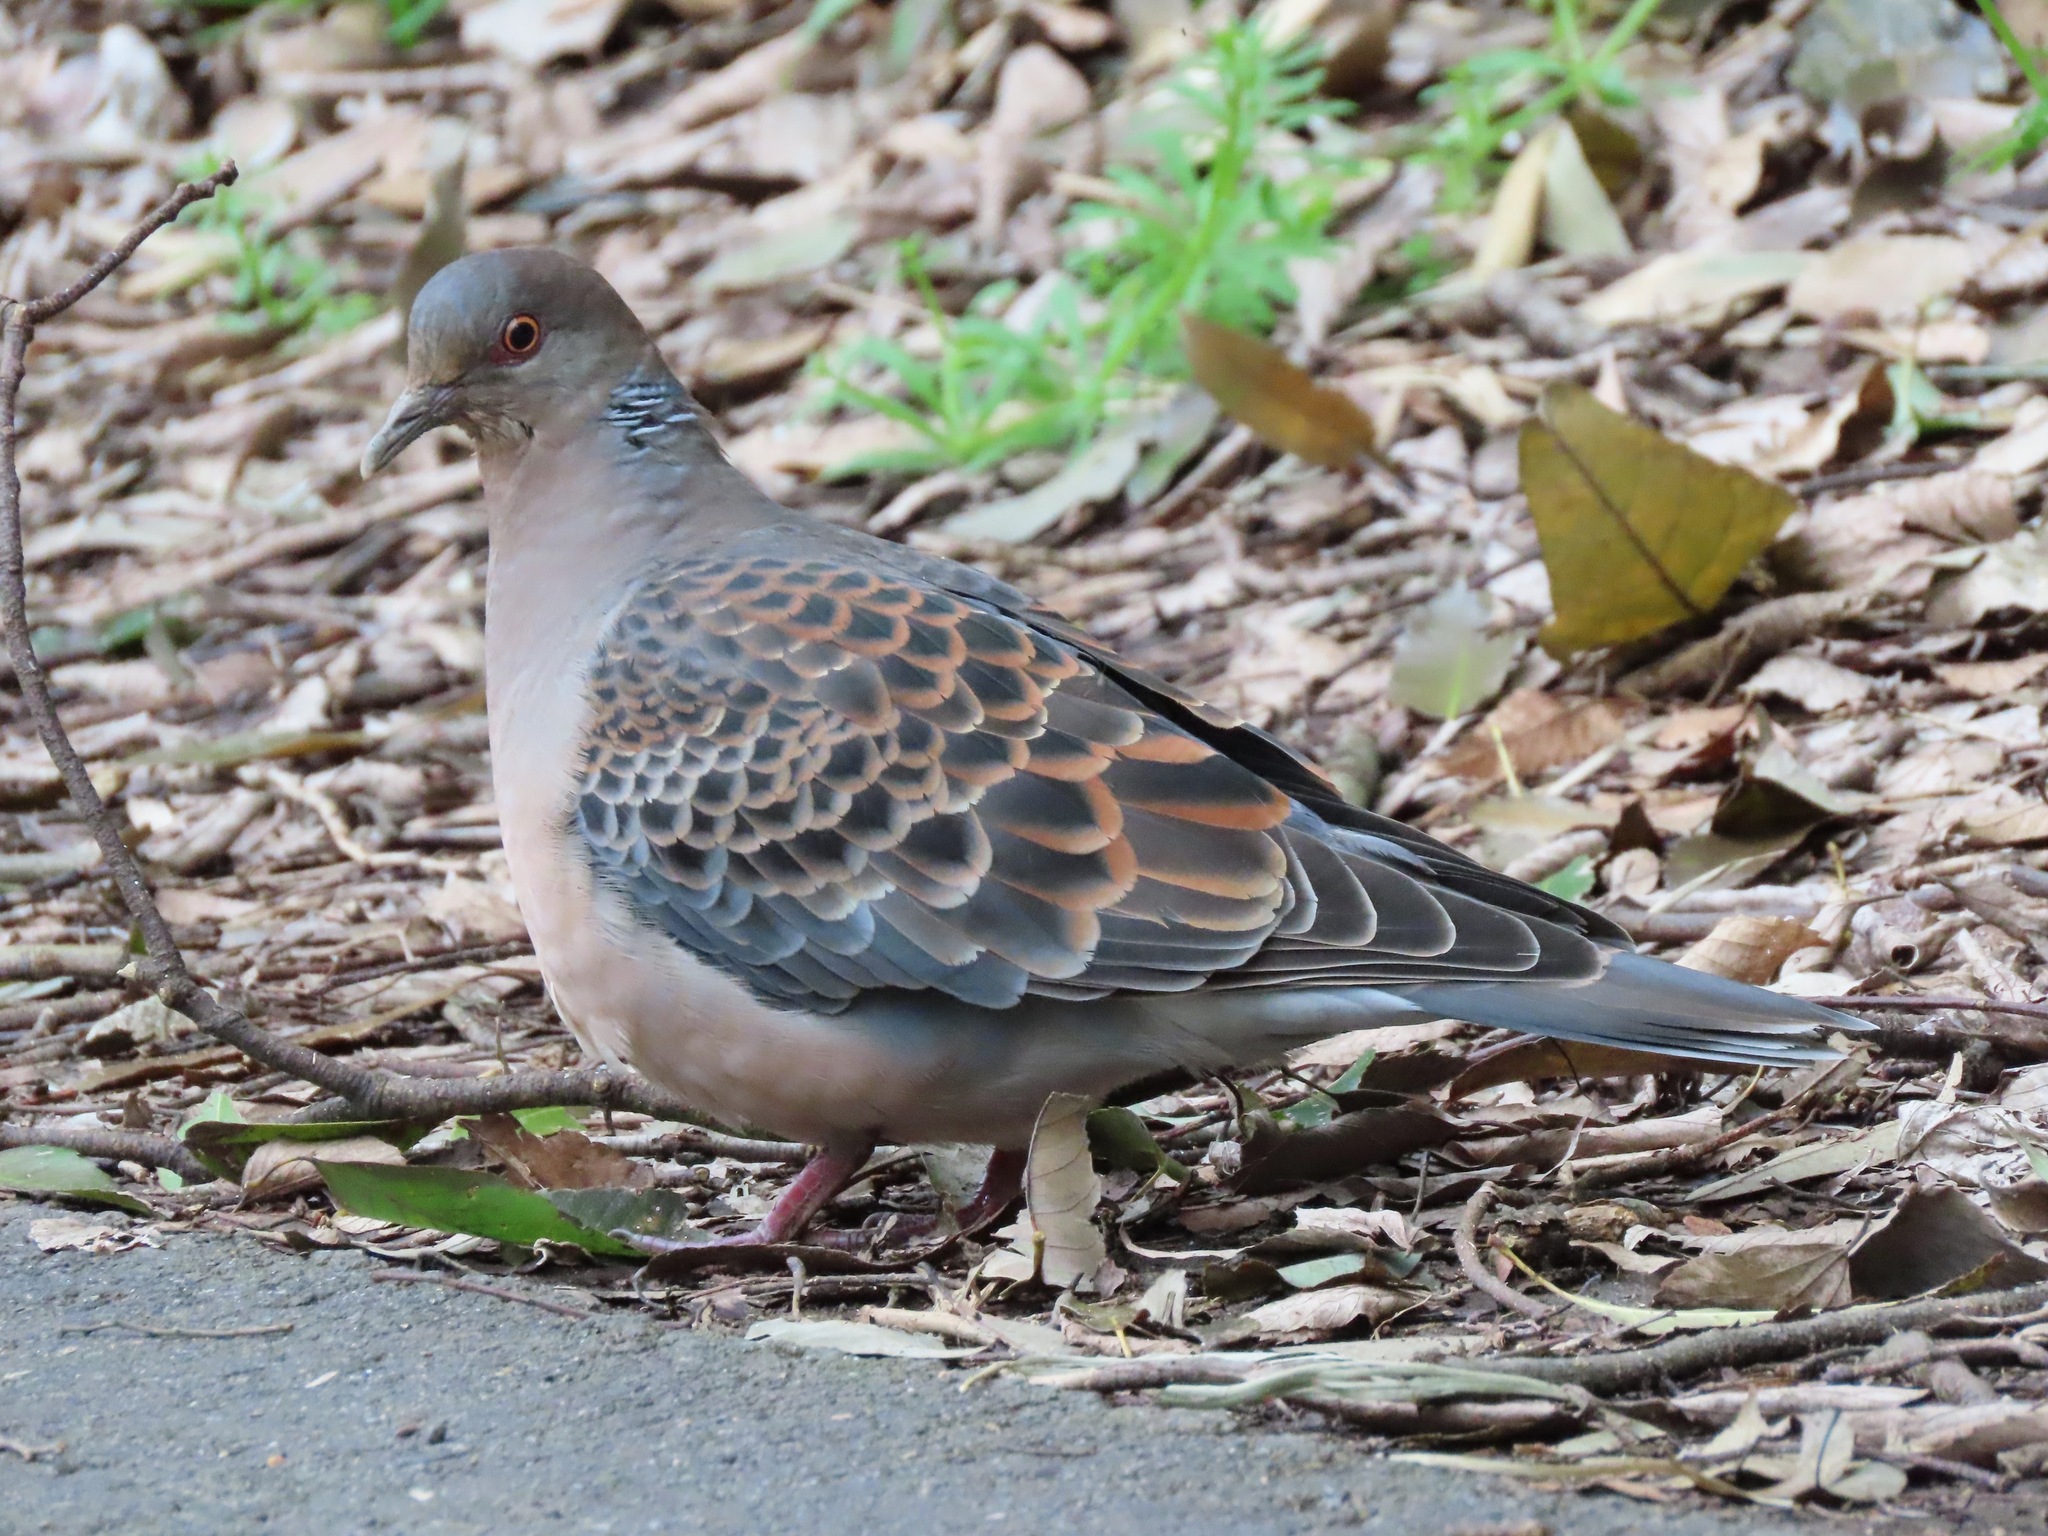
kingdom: Animalia
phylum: Chordata
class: Aves
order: Columbiformes
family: Columbidae
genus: Streptopelia
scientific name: Streptopelia orientalis
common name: Oriental turtle dove
